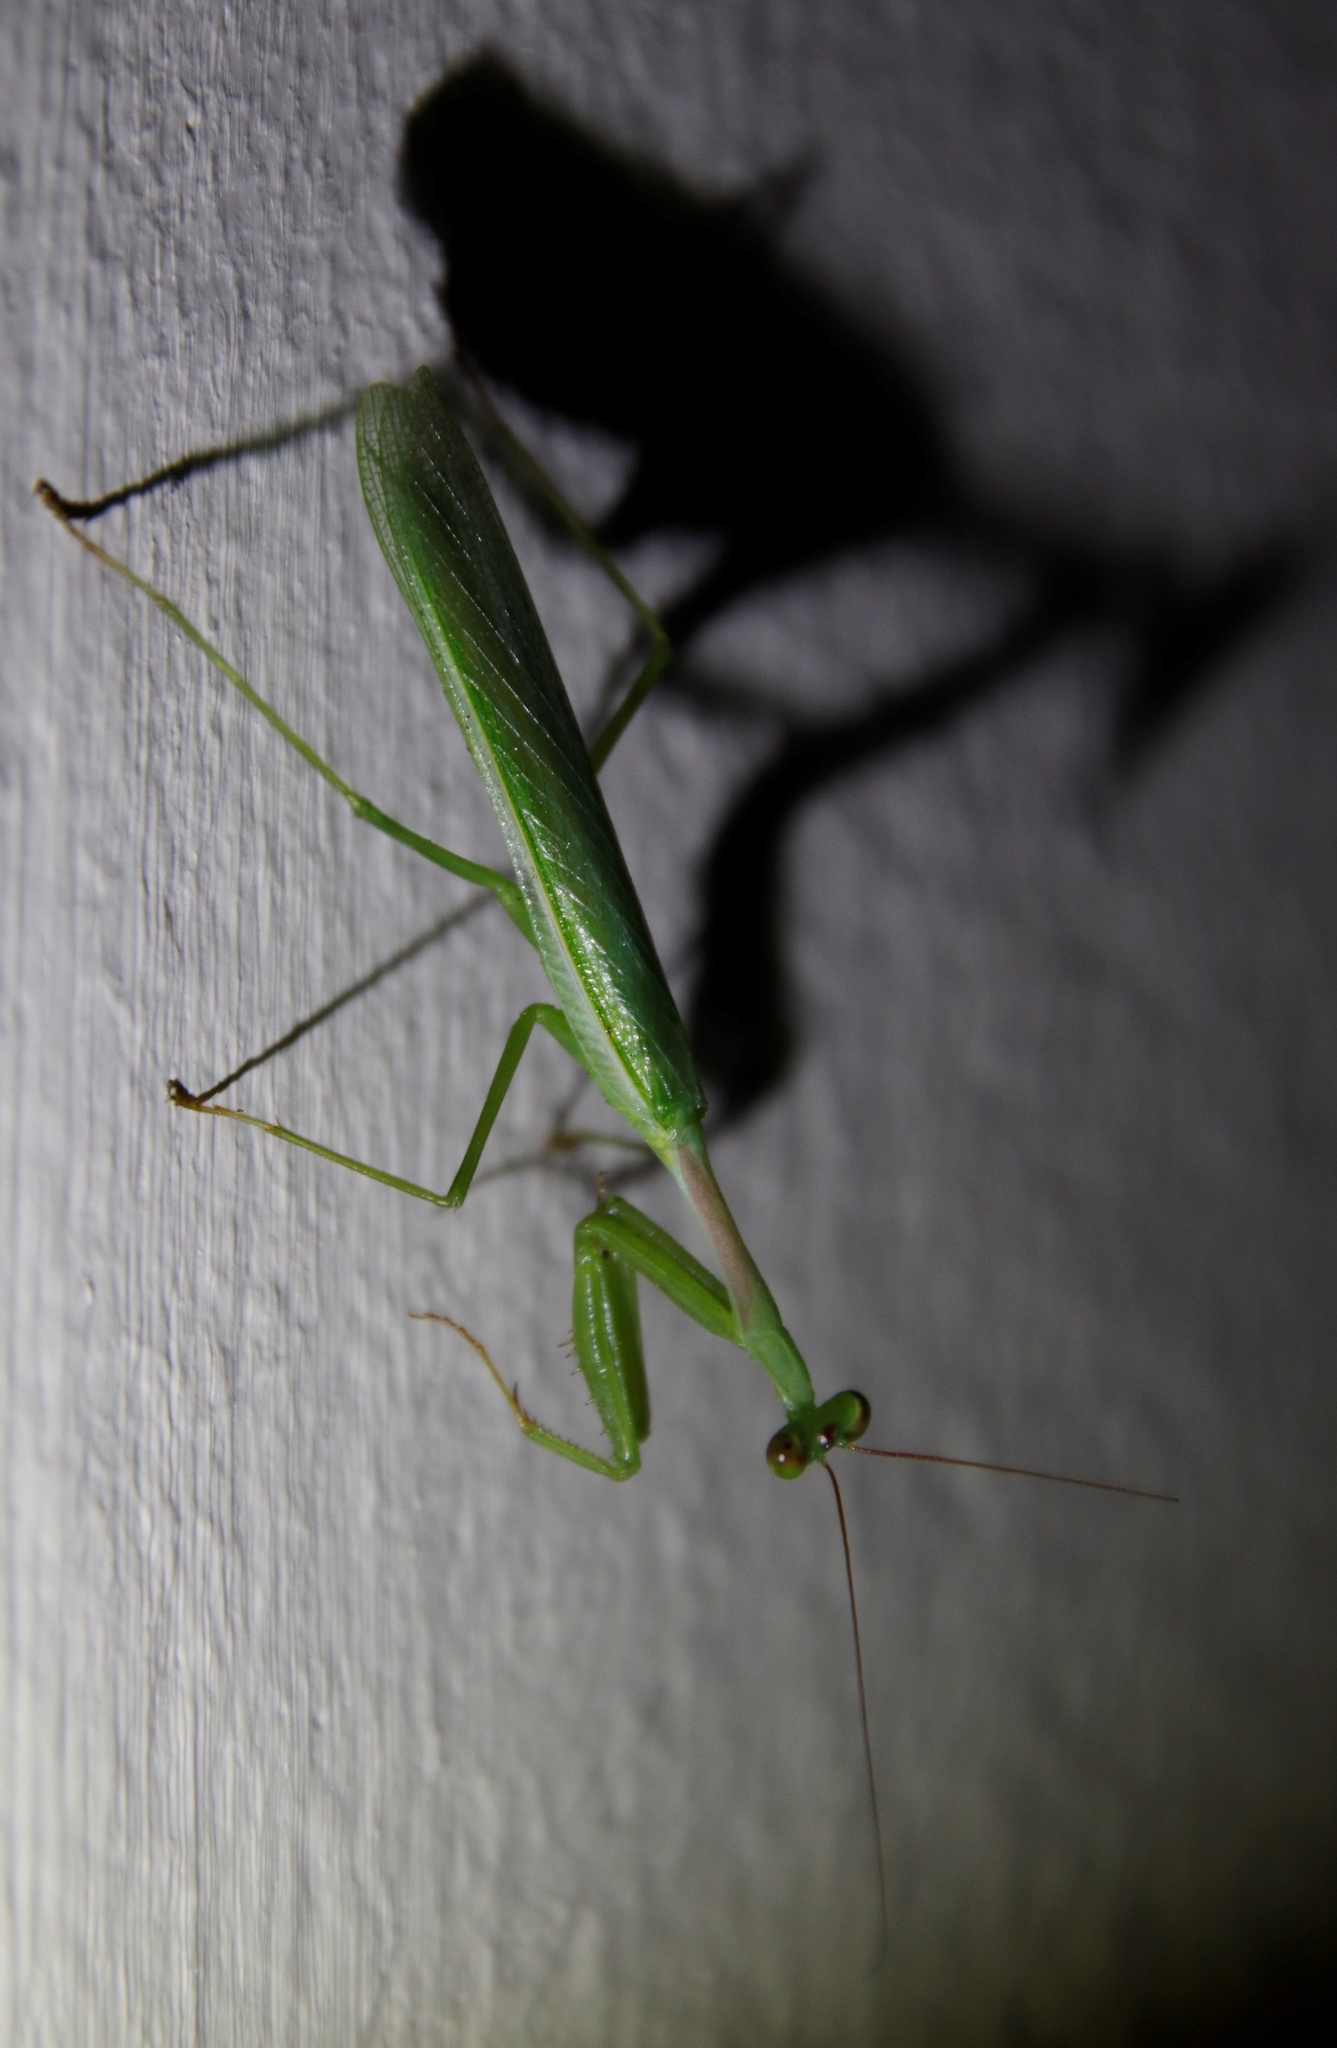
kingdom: Animalia
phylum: Arthropoda
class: Insecta
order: Mantodea
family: Miomantidae
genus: Miomantis
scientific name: Miomantis caffra
